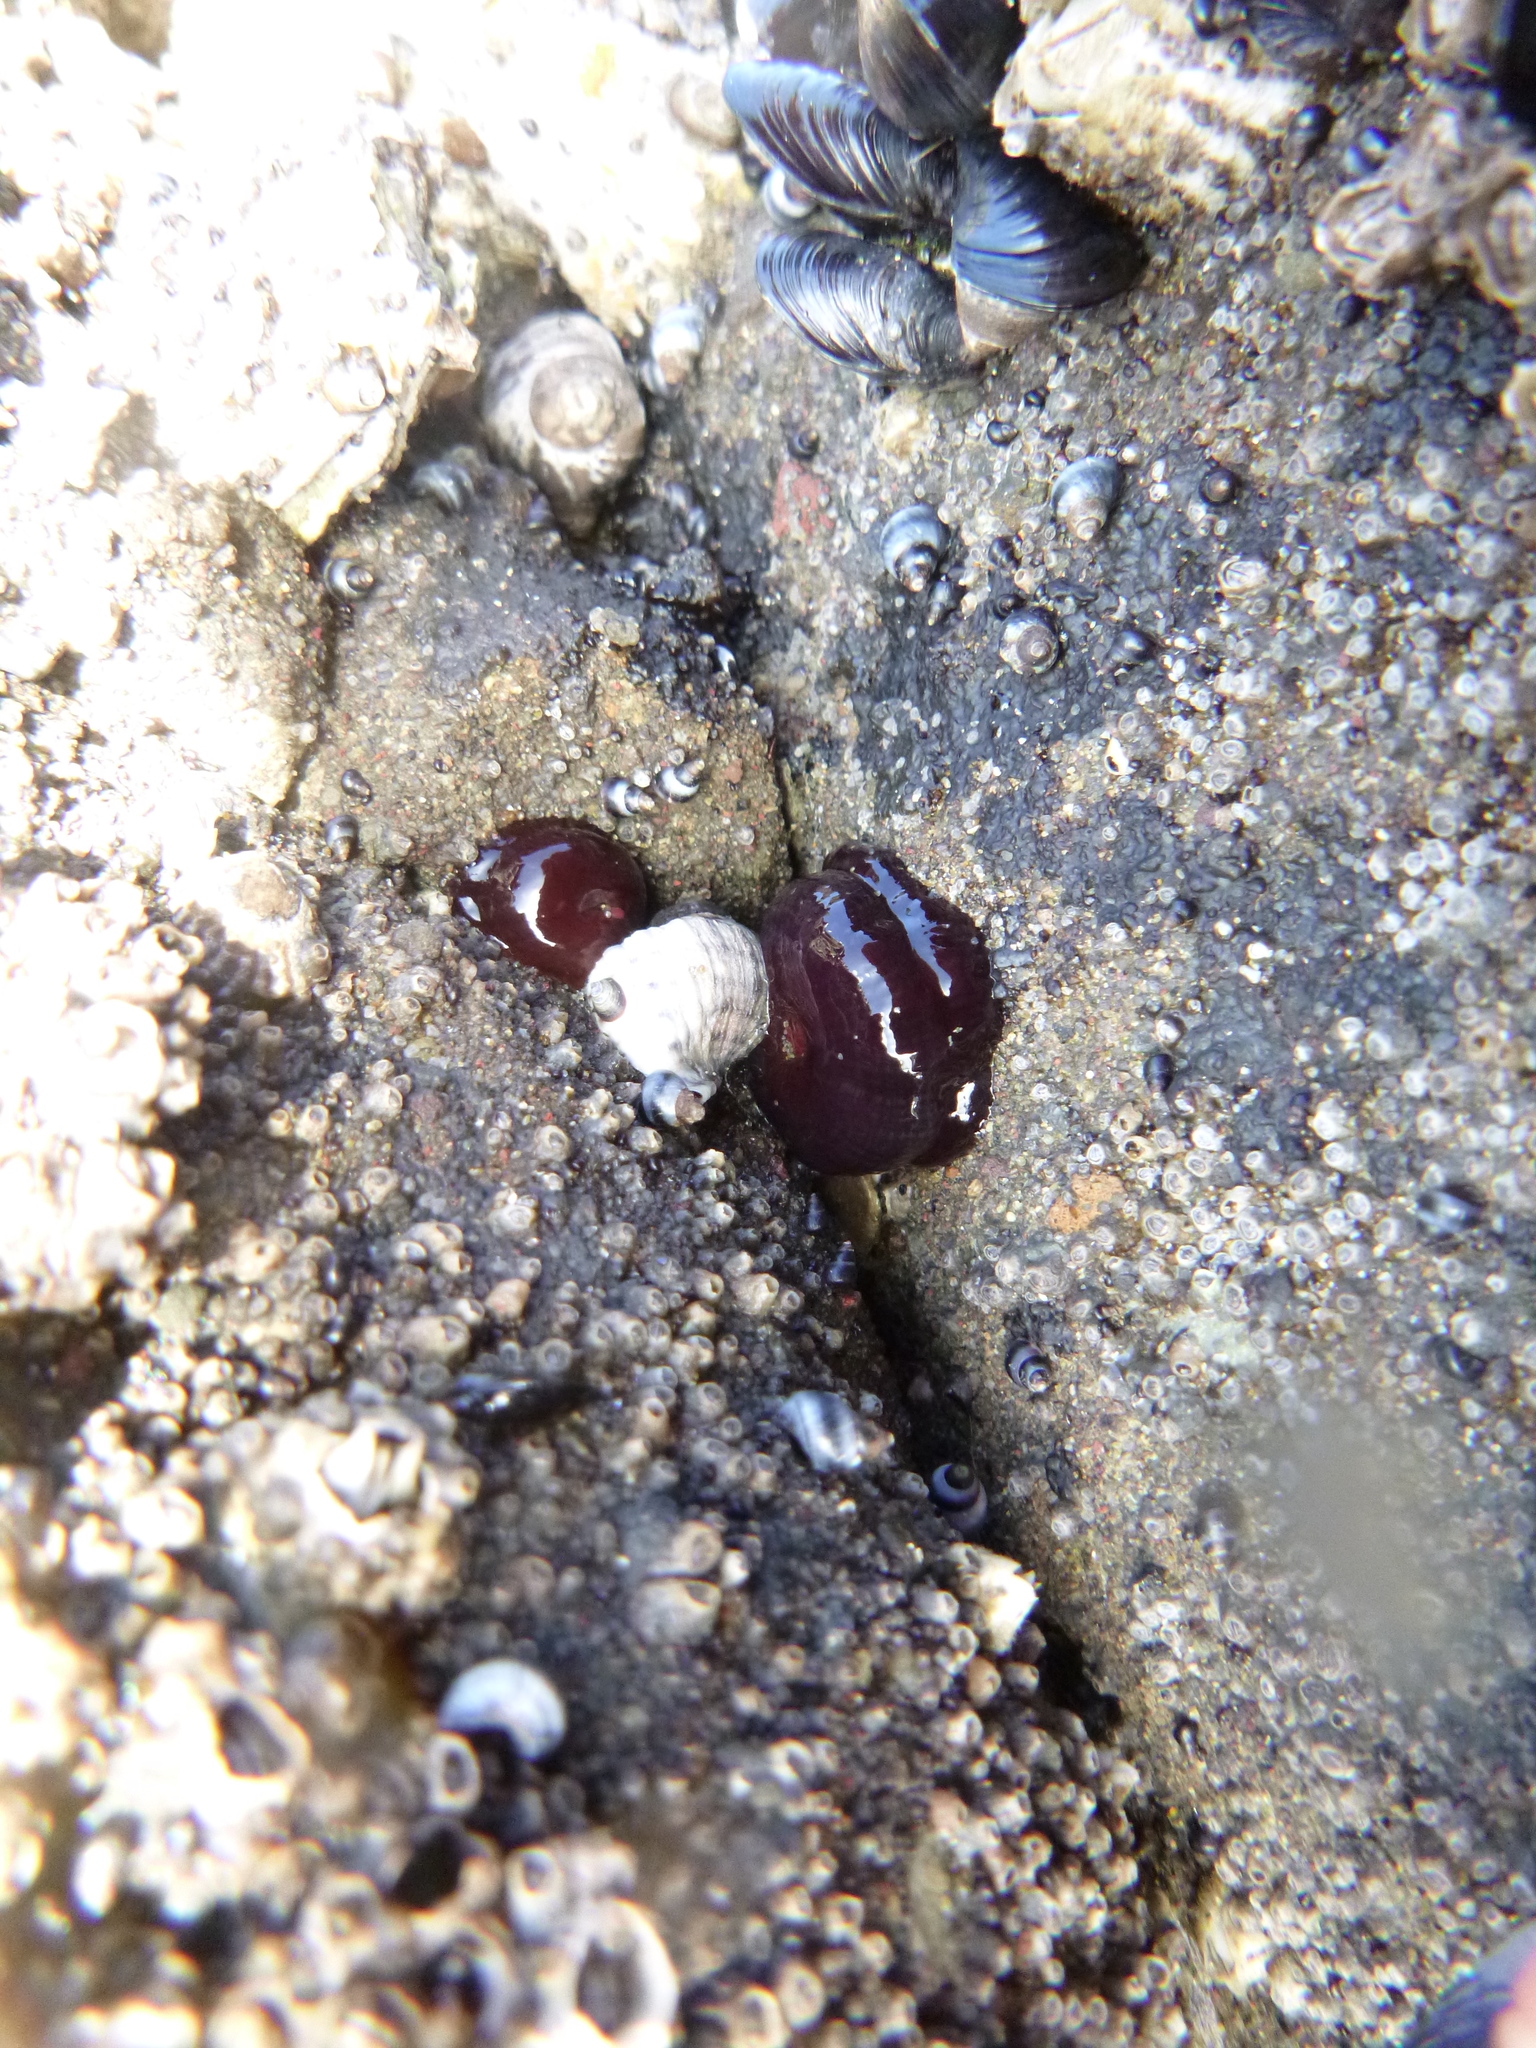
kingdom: Animalia
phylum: Cnidaria
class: Anthozoa
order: Actiniaria
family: Actiniidae
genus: Actinia
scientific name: Actinia tenebrosa
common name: Waratah anemone
